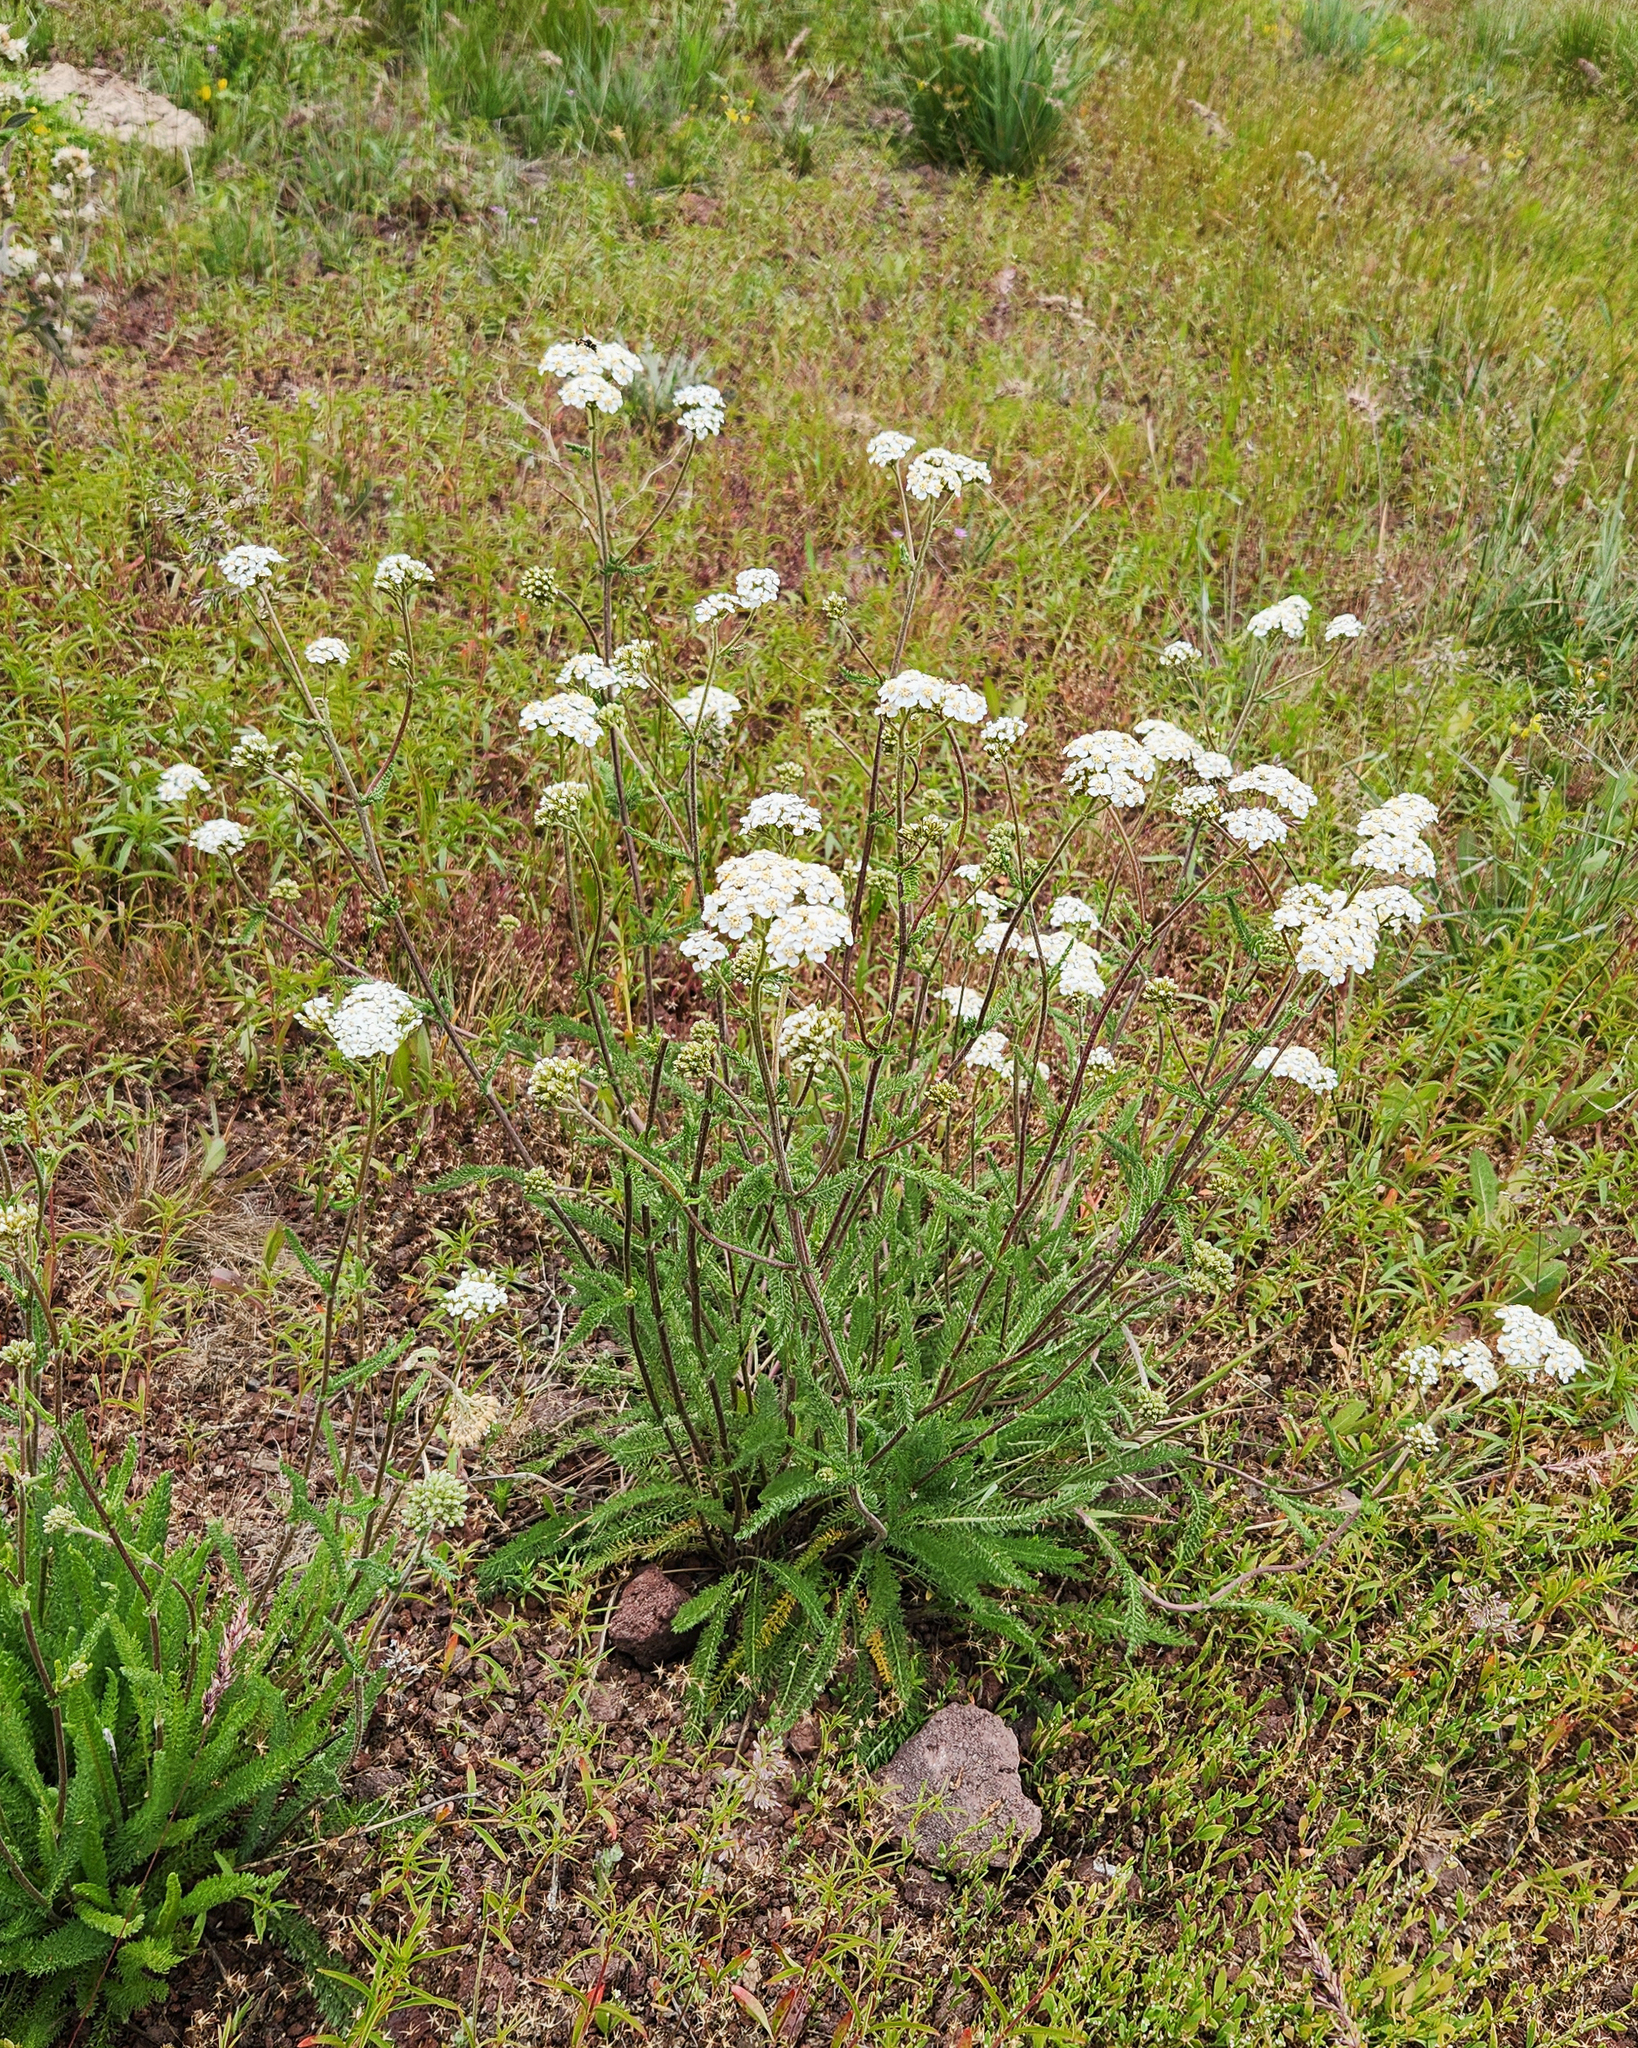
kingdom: Plantae
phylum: Tracheophyta
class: Magnoliopsida
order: Asterales
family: Asteraceae
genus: Achillea
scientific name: Achillea millefolium
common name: Yarrow
